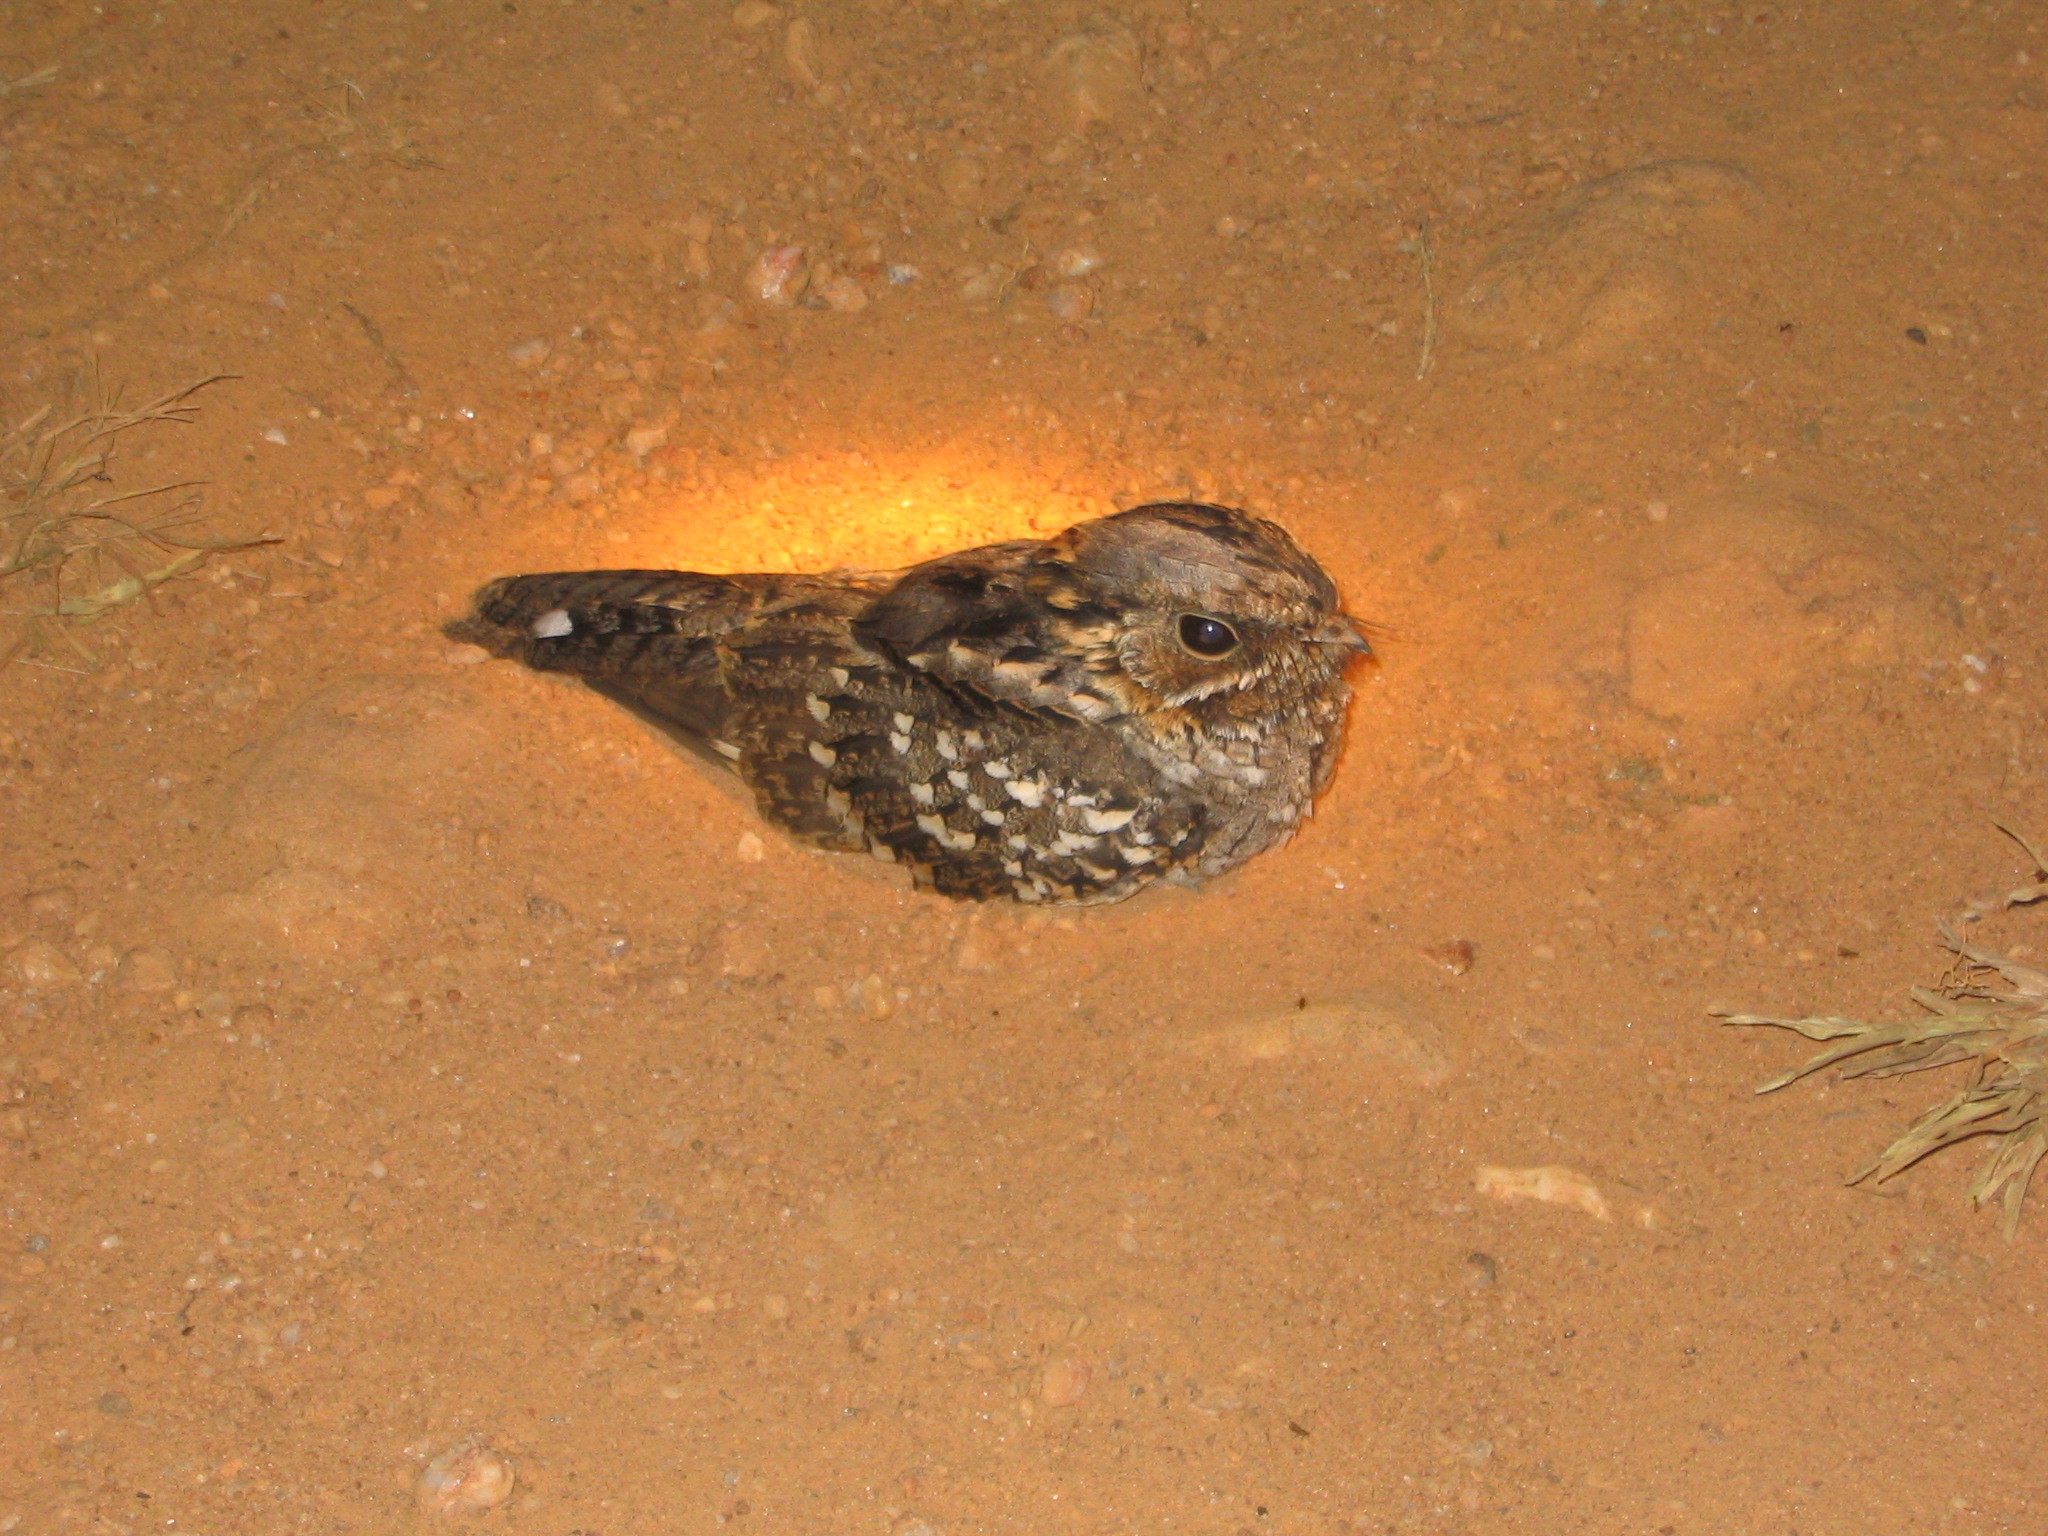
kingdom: Animalia
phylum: Chordata
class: Aves
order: Caprimulgiformes
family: Caprimulgidae
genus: Setopagis
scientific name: Setopagis parvula
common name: Little nightjar
